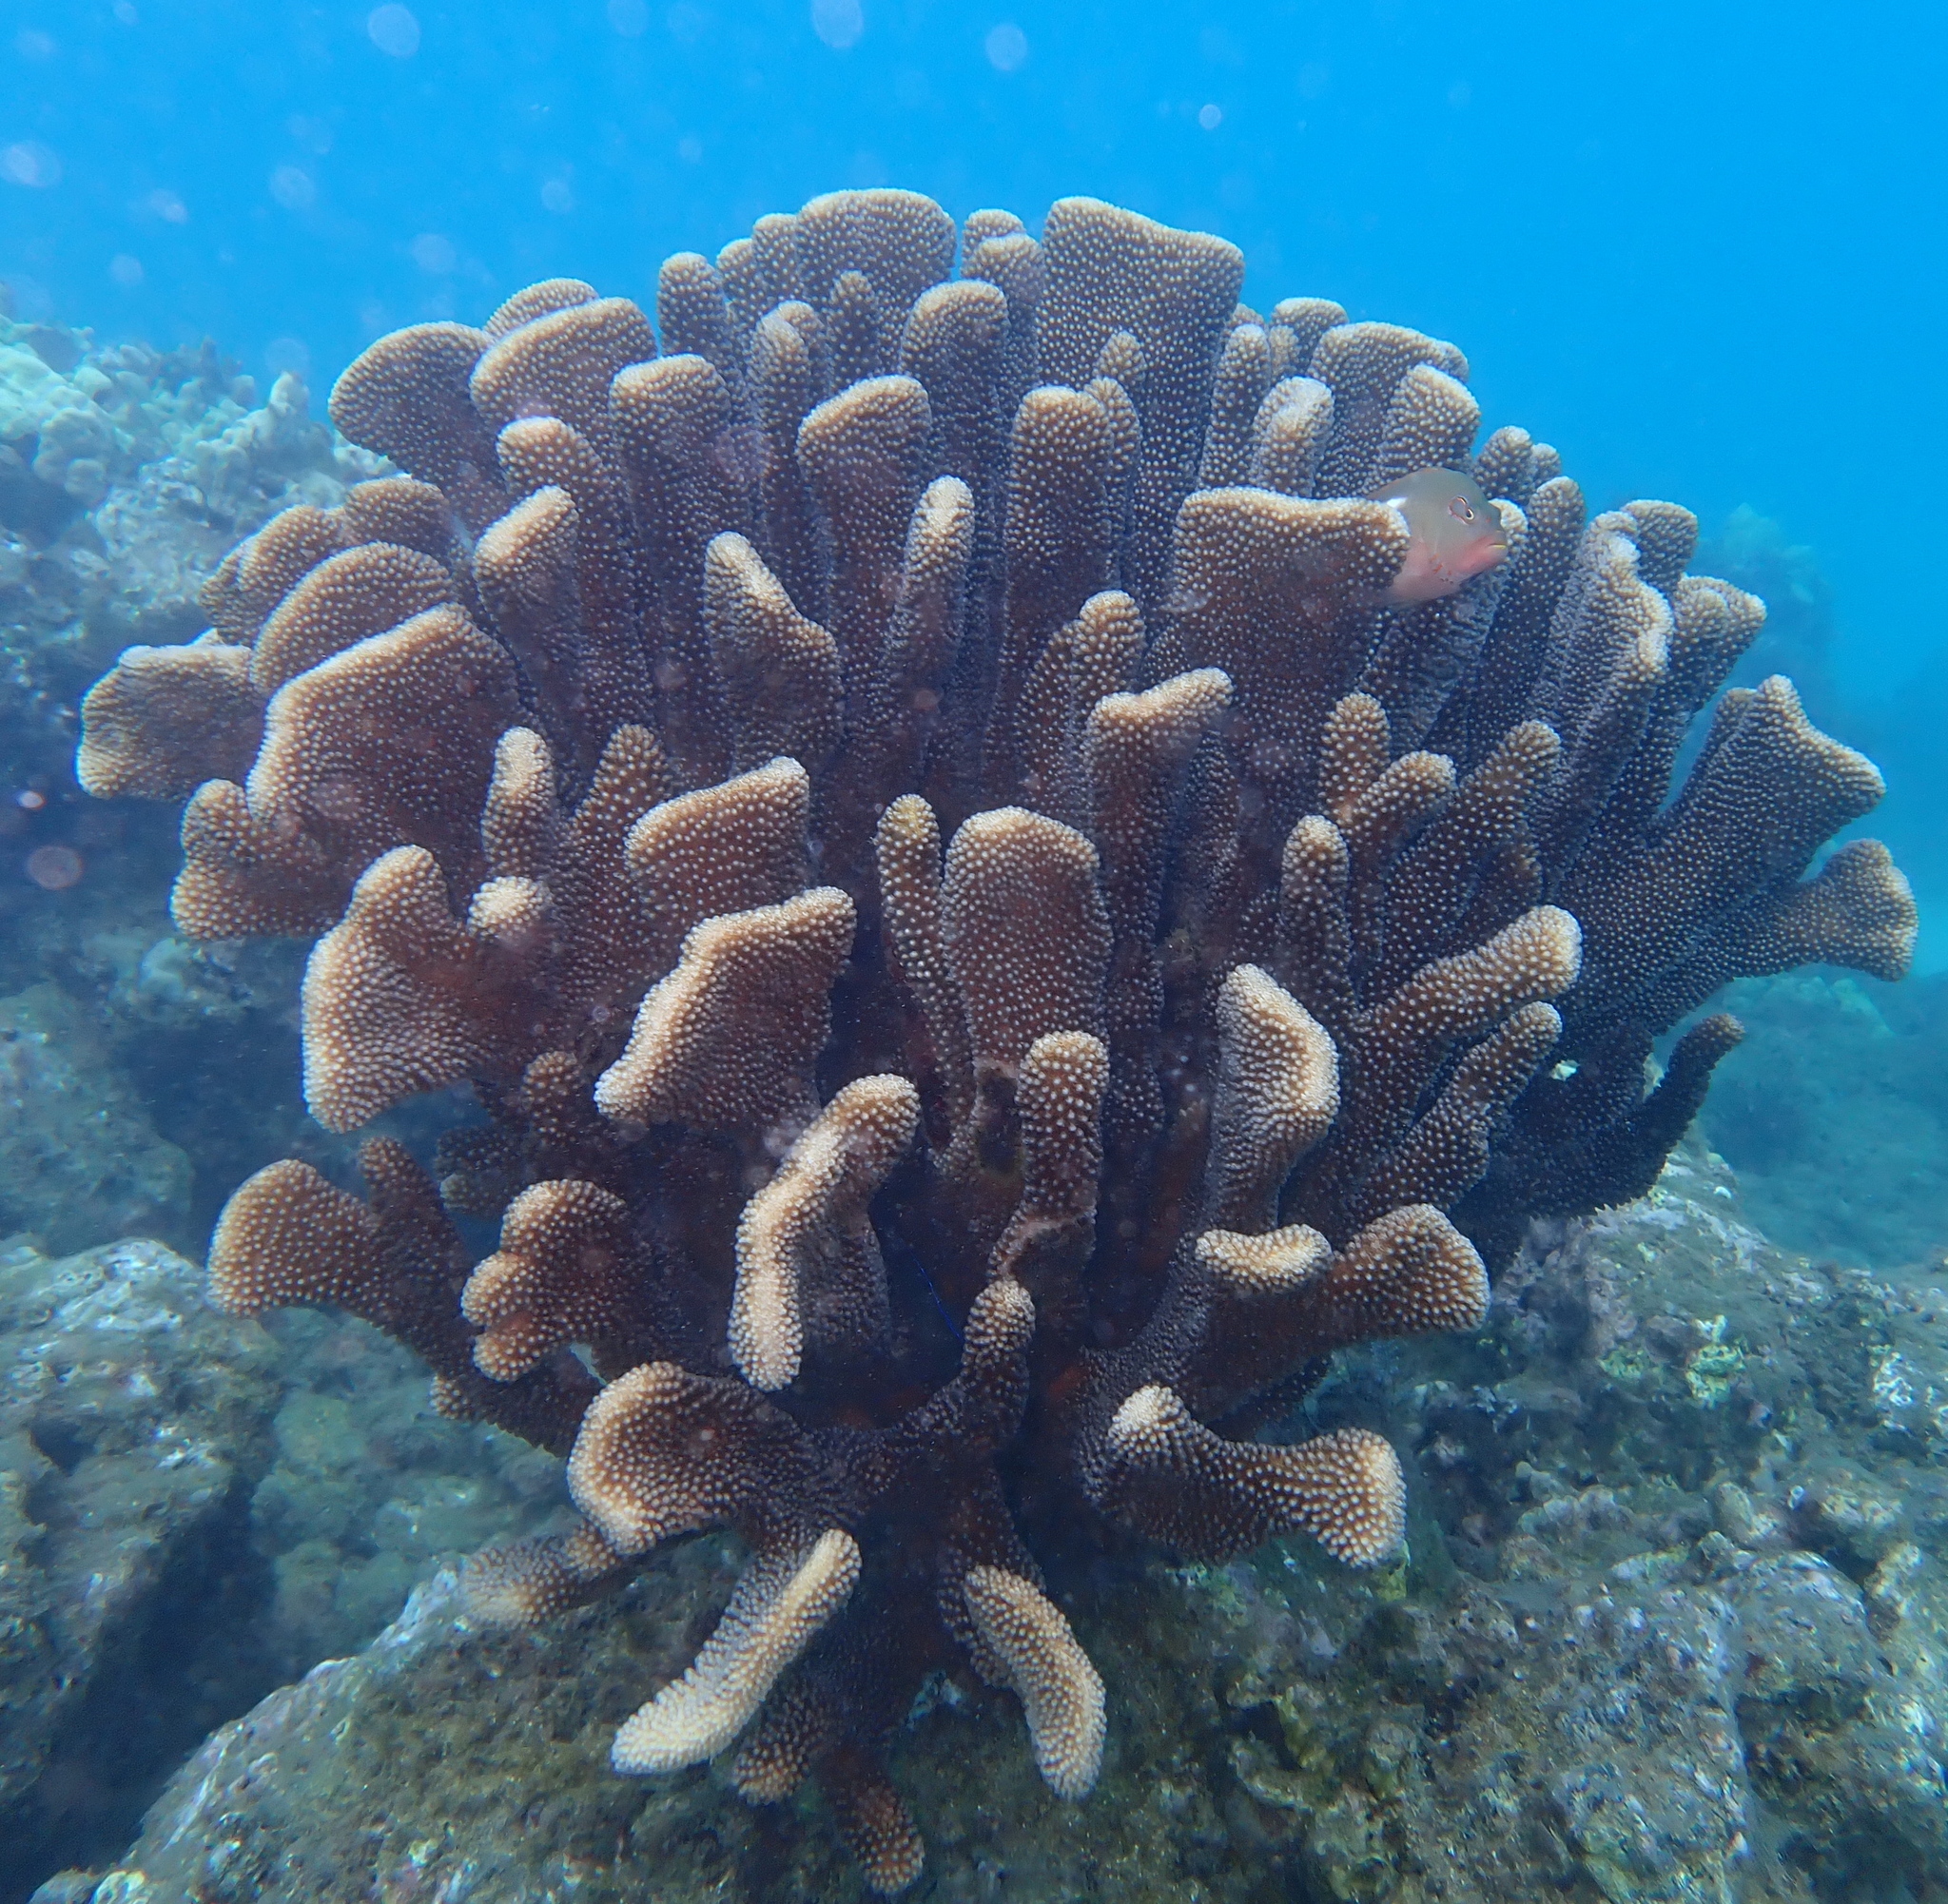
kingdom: Animalia
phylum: Cnidaria
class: Anthozoa
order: Scleractinia
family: Pocilloporidae
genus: Pocillopora
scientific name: Pocillopora grandis
